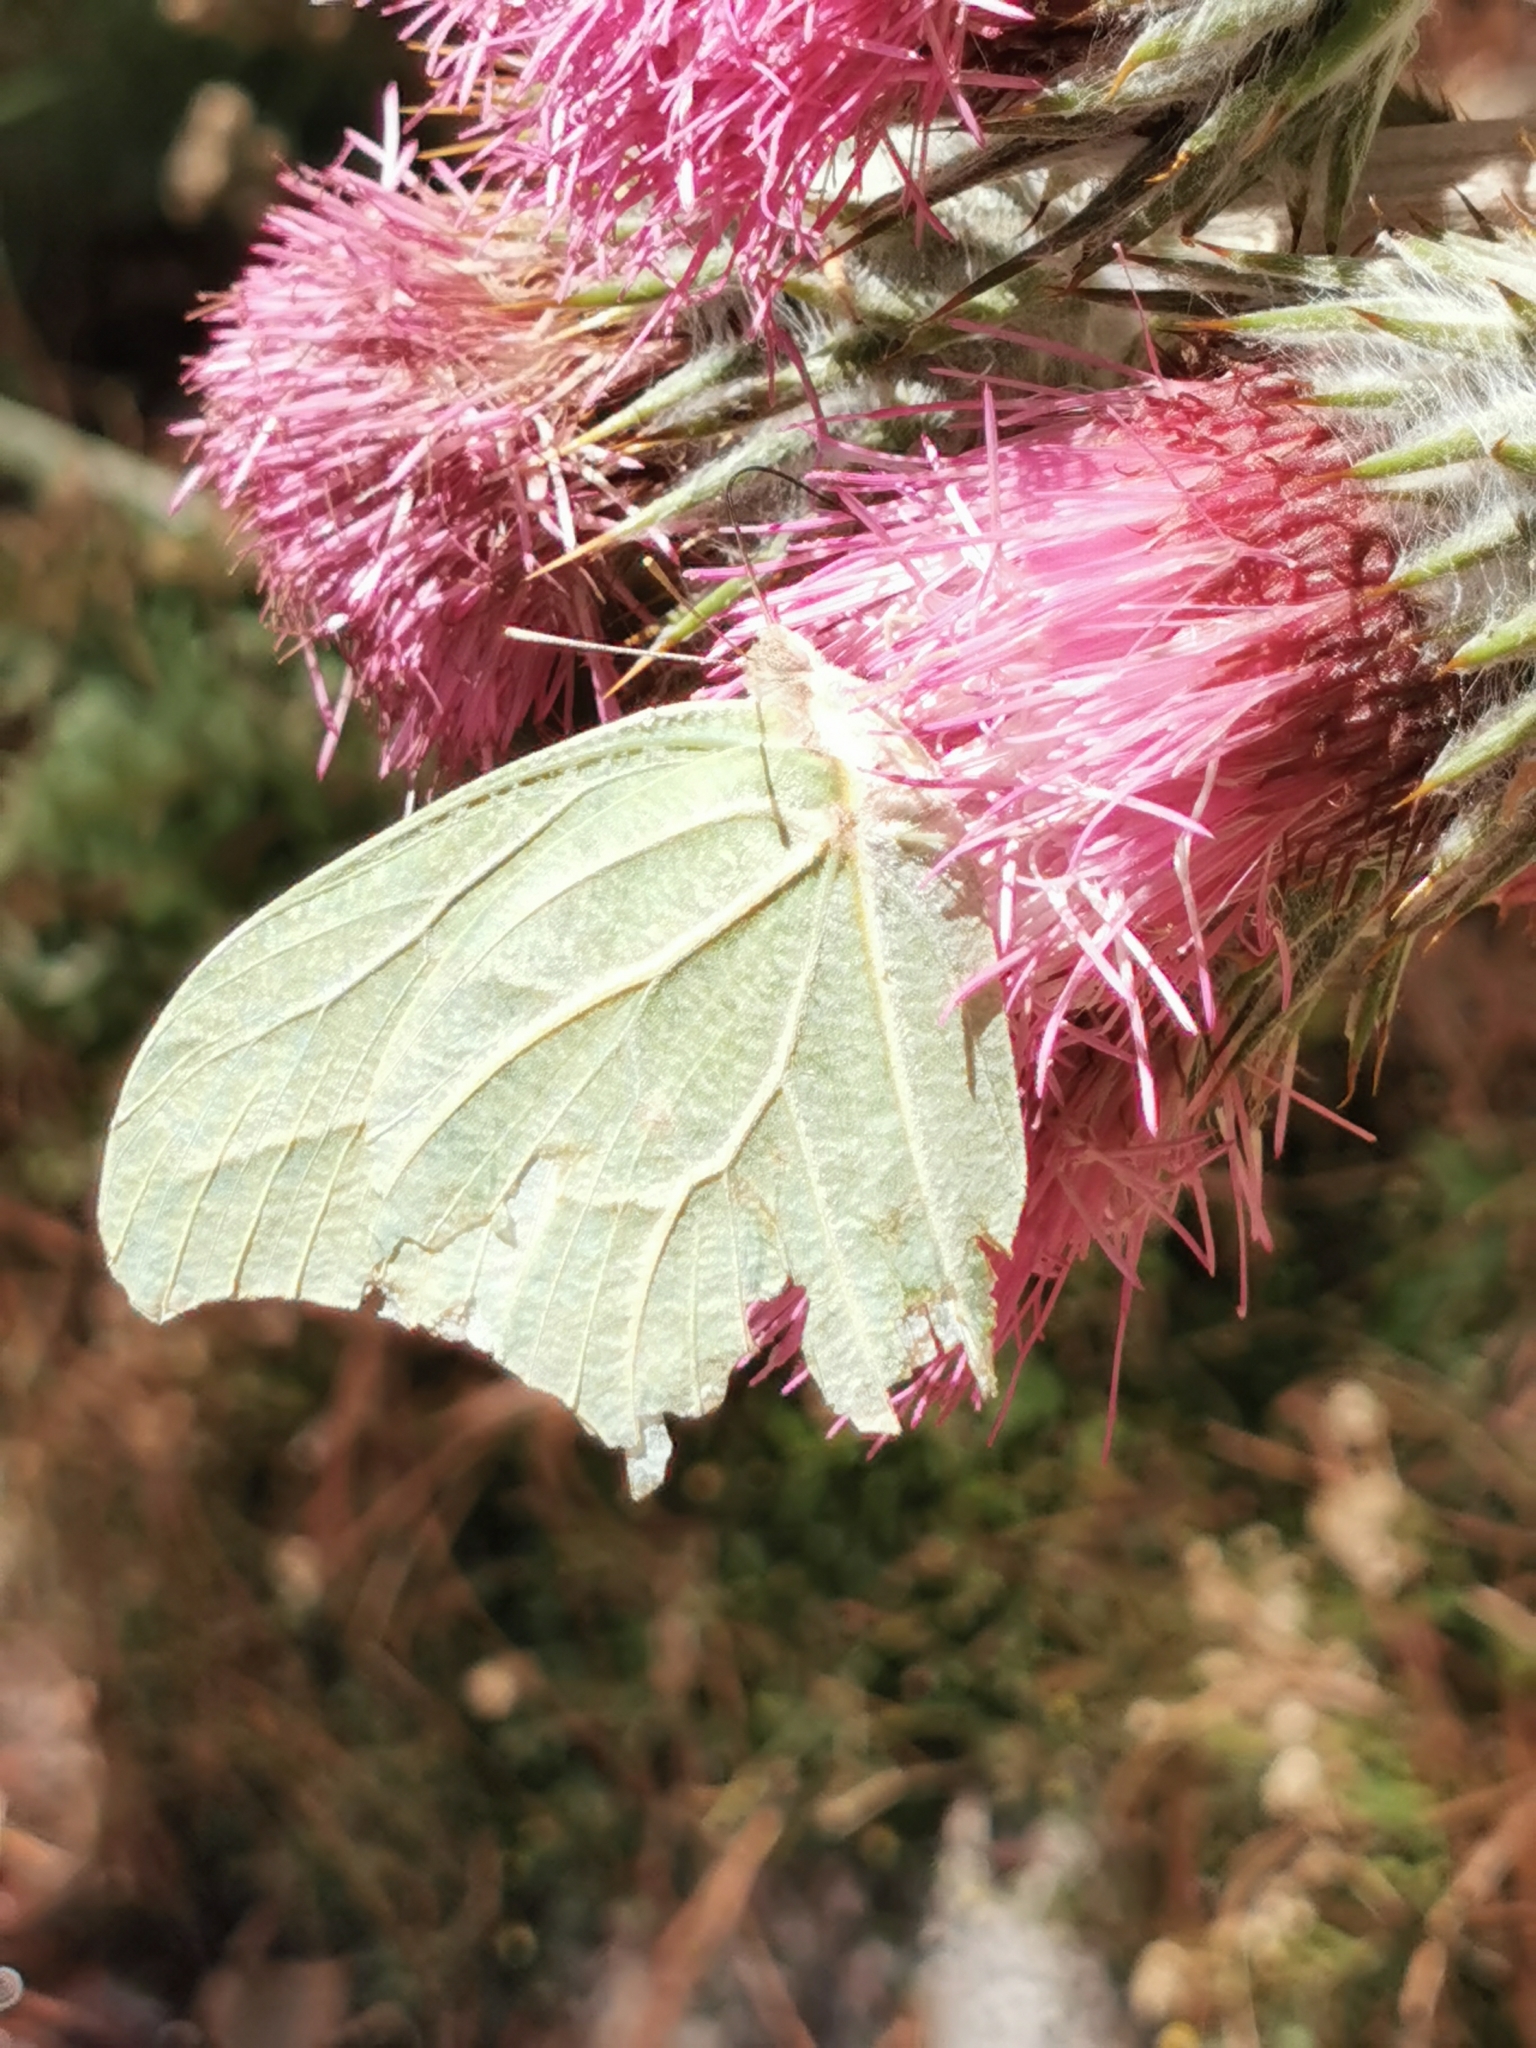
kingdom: Animalia
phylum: Arthropoda
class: Insecta
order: Lepidoptera
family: Pieridae
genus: Anteos
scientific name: Anteos clorinde
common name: White angled sulphur
